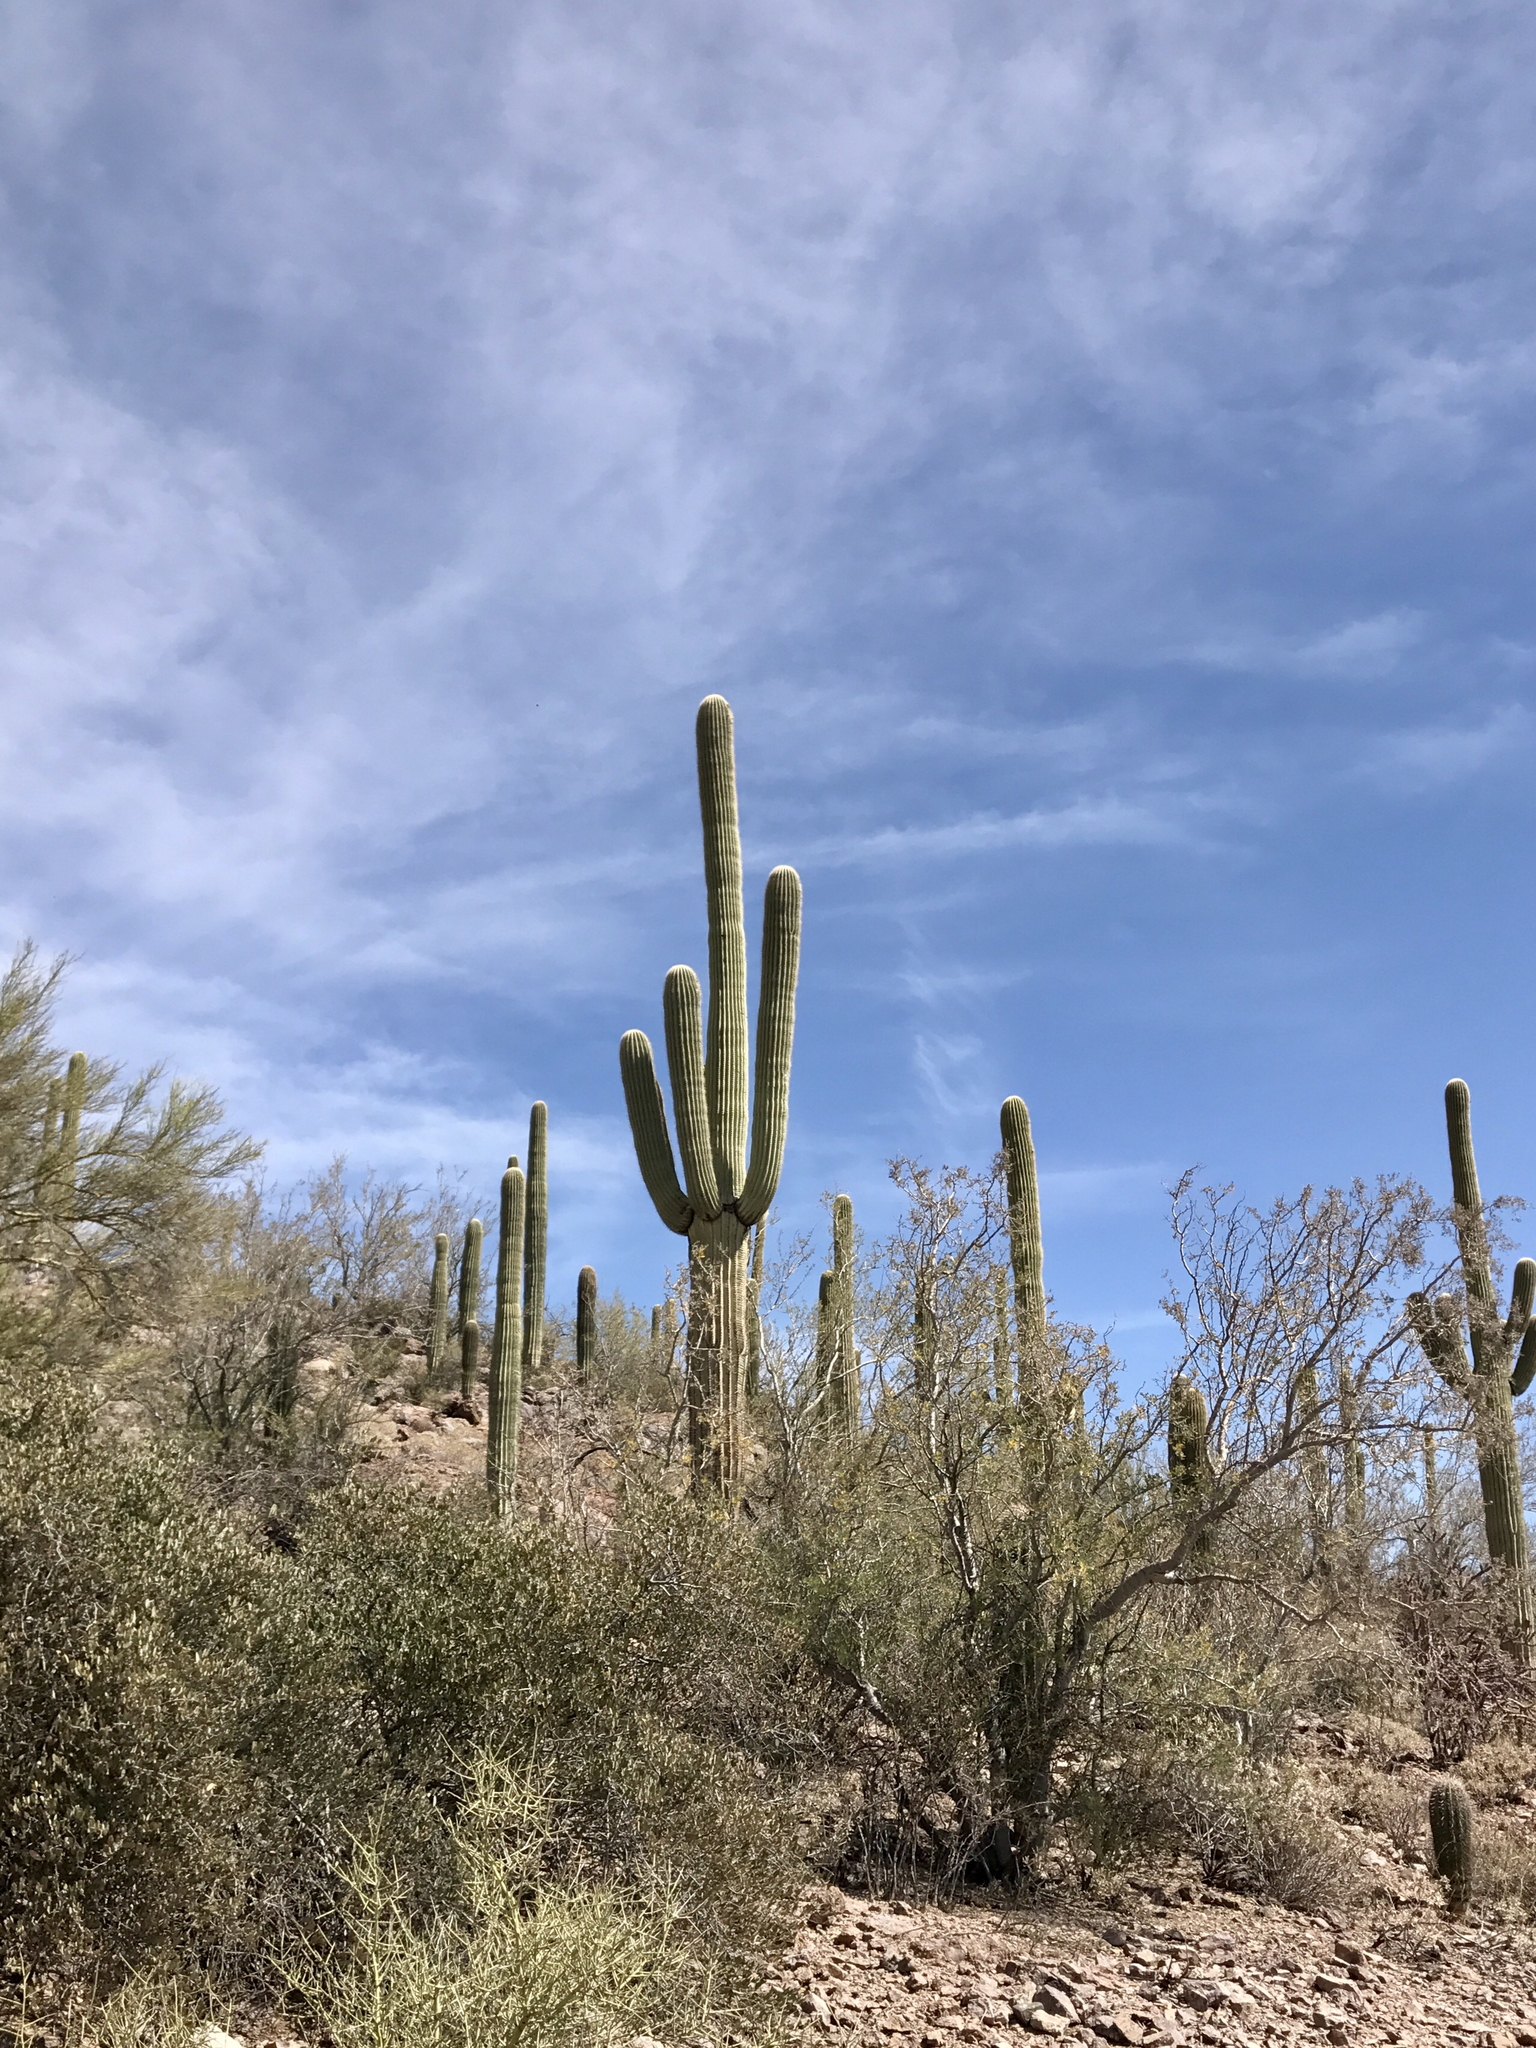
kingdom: Plantae
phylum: Tracheophyta
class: Magnoliopsida
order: Caryophyllales
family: Cactaceae
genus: Carnegiea
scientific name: Carnegiea gigantea
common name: Saguaro
